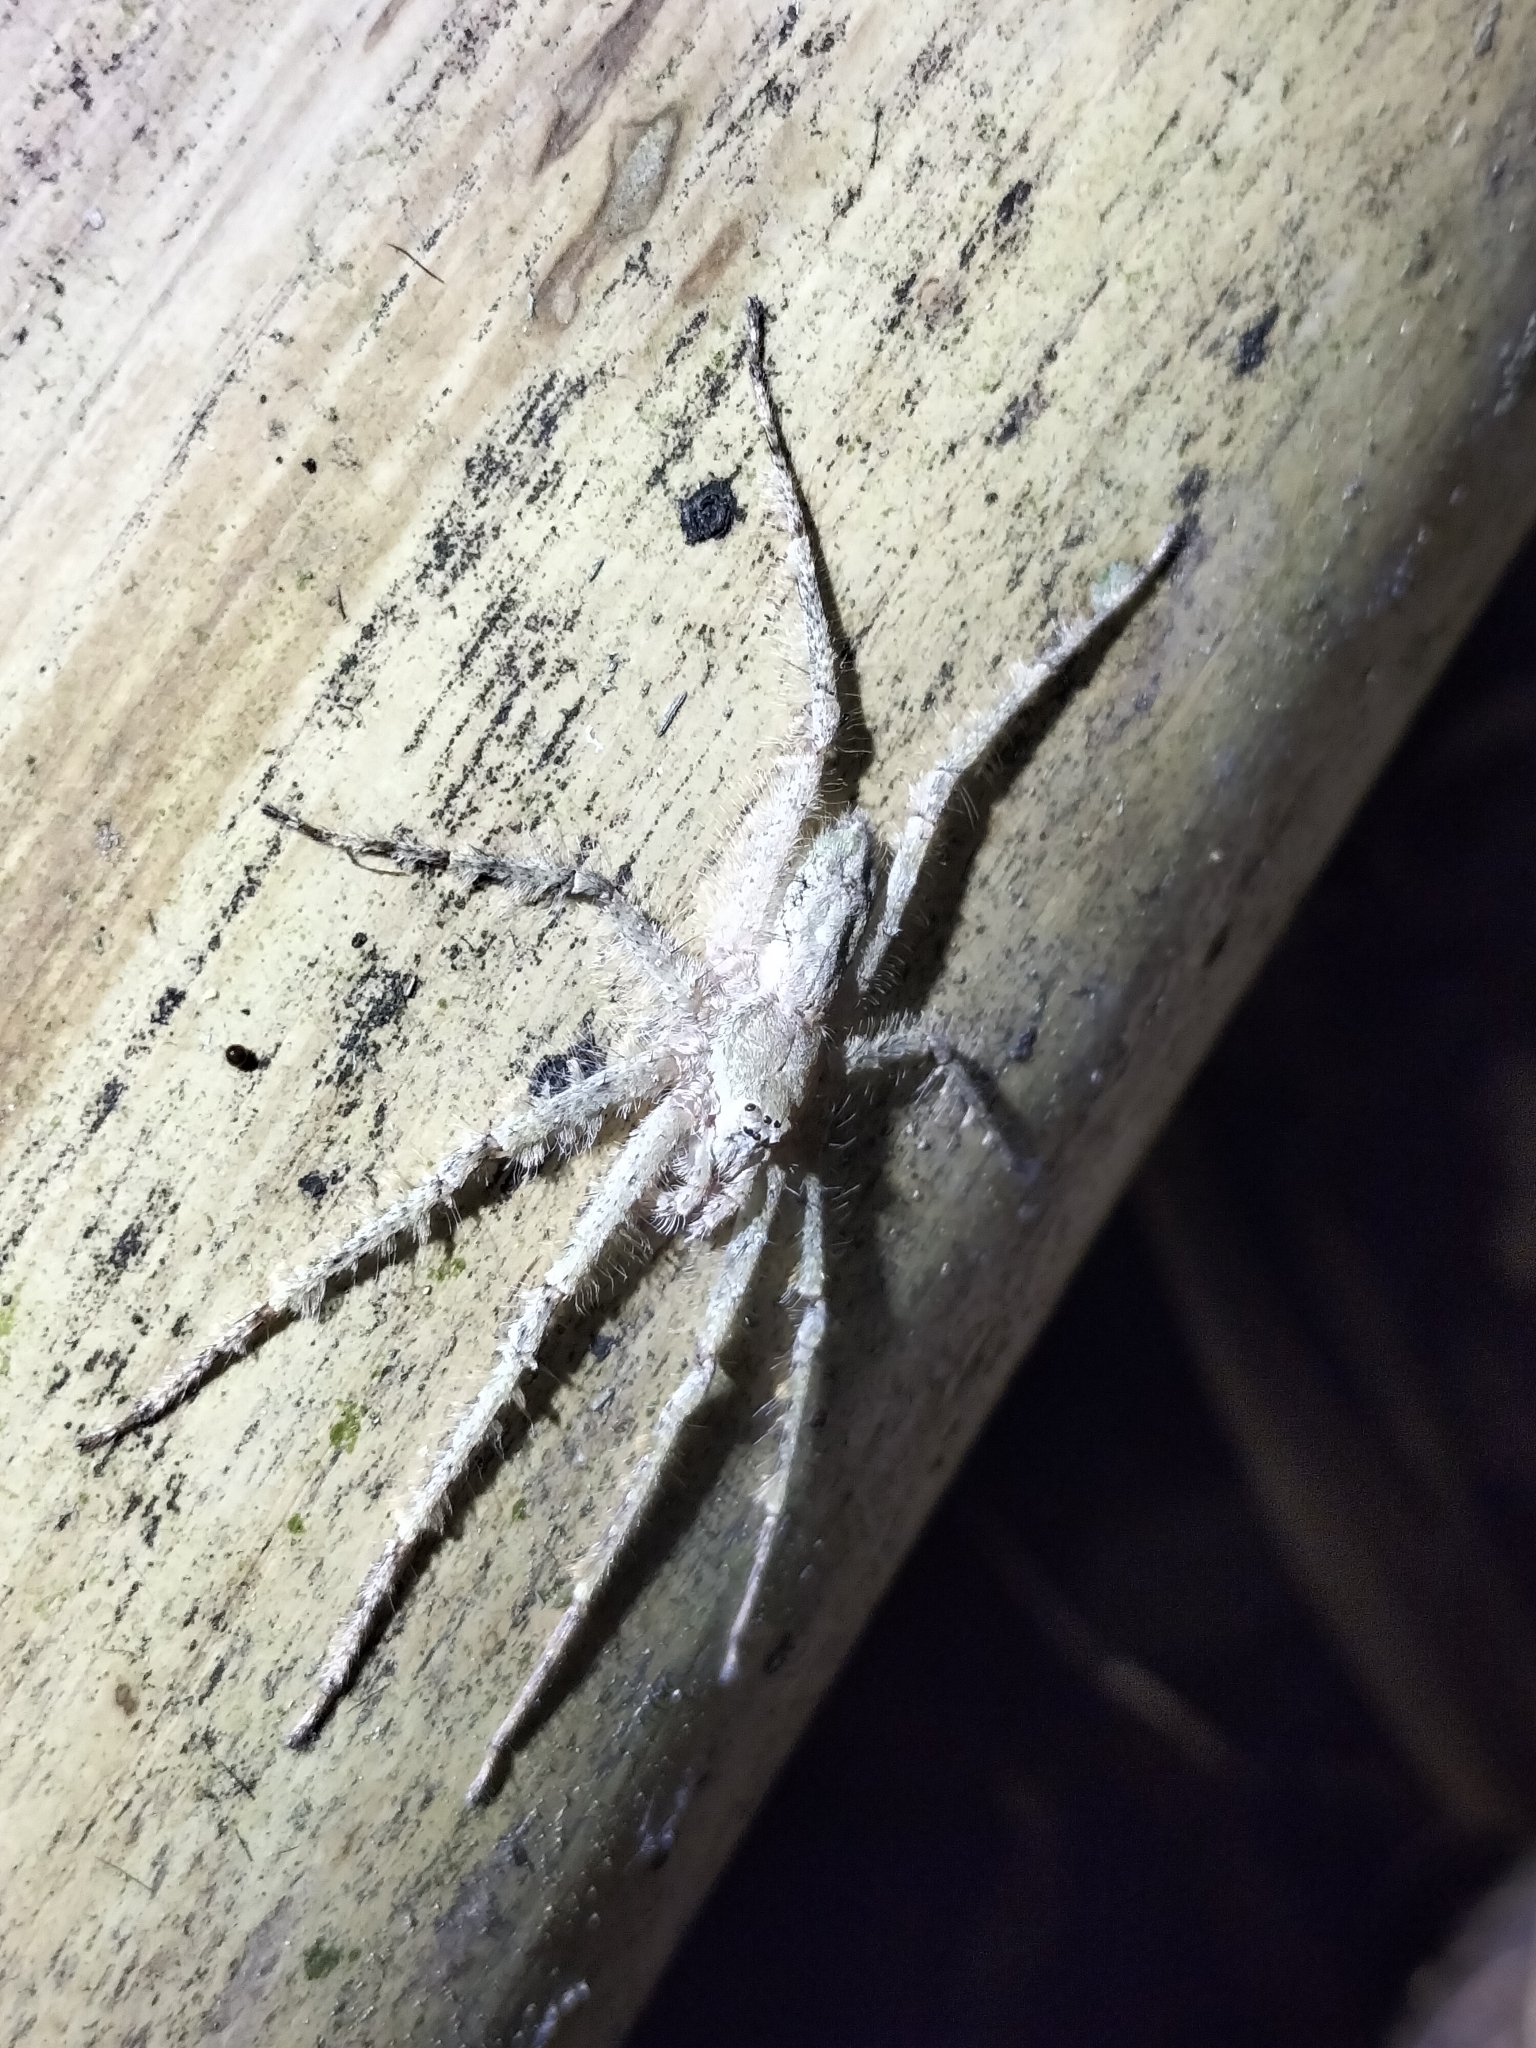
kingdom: Animalia
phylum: Arthropoda
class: Arachnida
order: Araneae
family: Sparassidae
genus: Pandercetes
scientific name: Pandercetes gracilis
